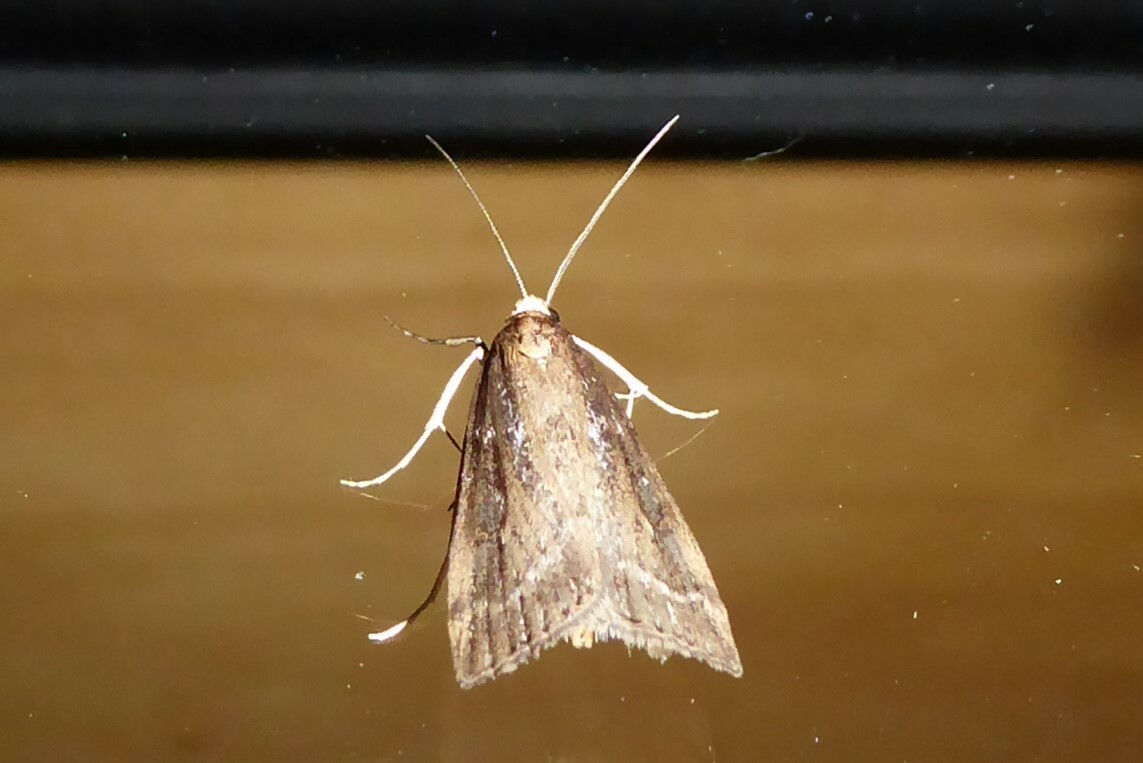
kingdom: Animalia
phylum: Arthropoda
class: Insecta
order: Lepidoptera
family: Crambidae
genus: Eudonia
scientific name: Eudonia octophora
